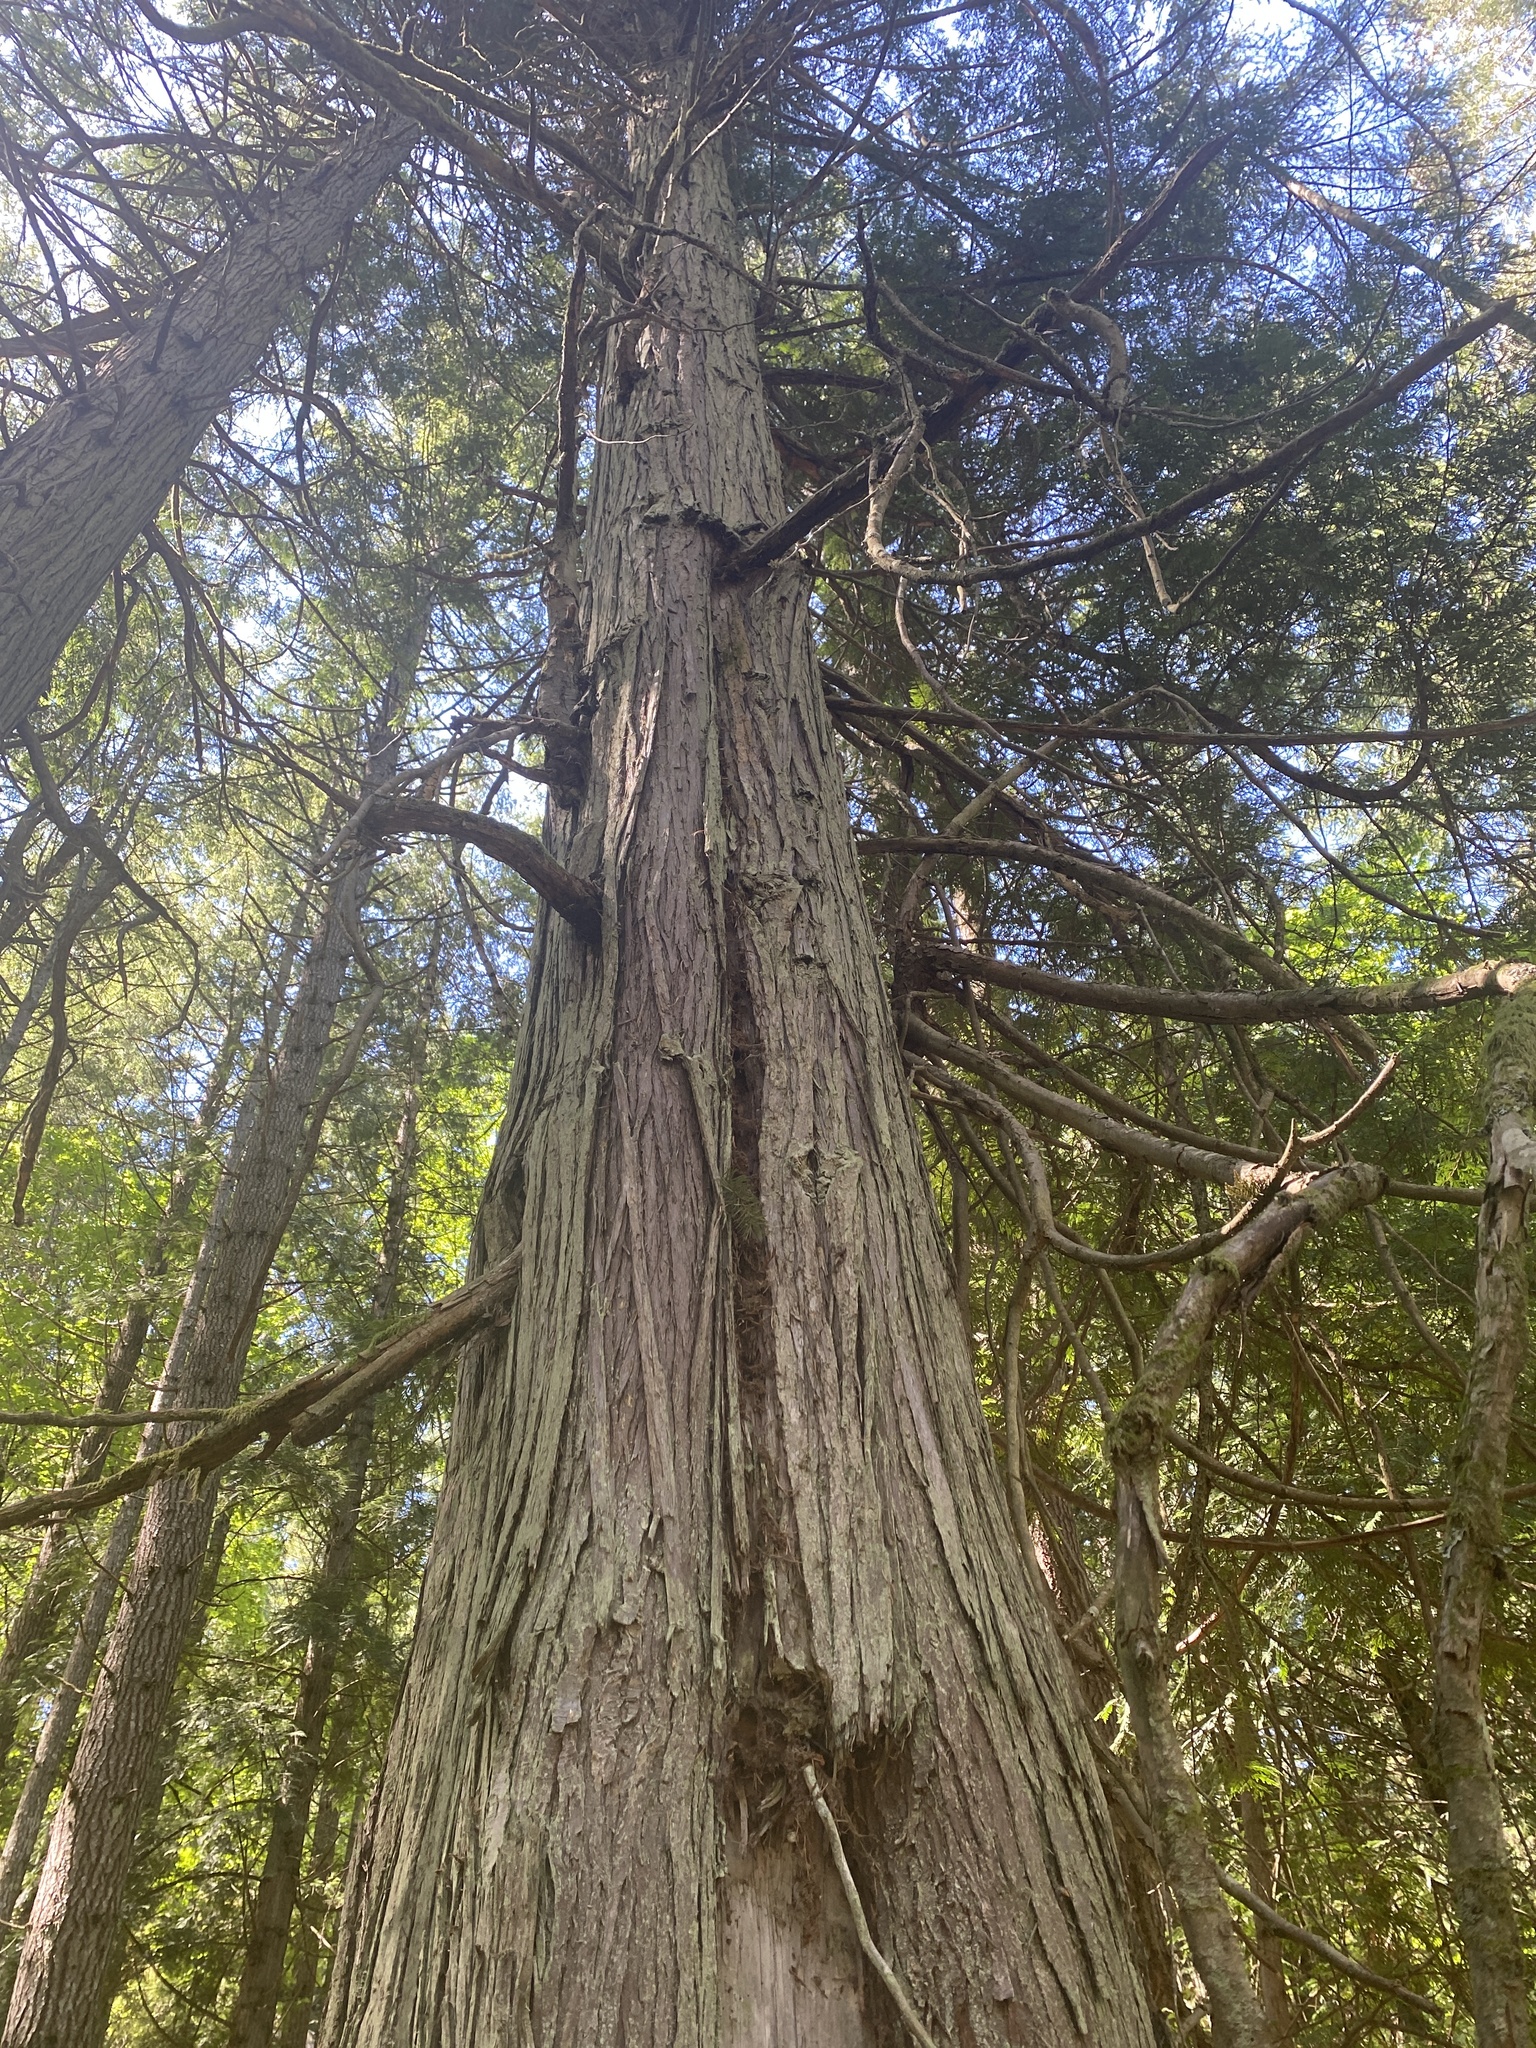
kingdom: Plantae
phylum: Tracheophyta
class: Pinopsida
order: Pinales
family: Cupressaceae
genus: Thuja
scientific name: Thuja plicata
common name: Western red-cedar
